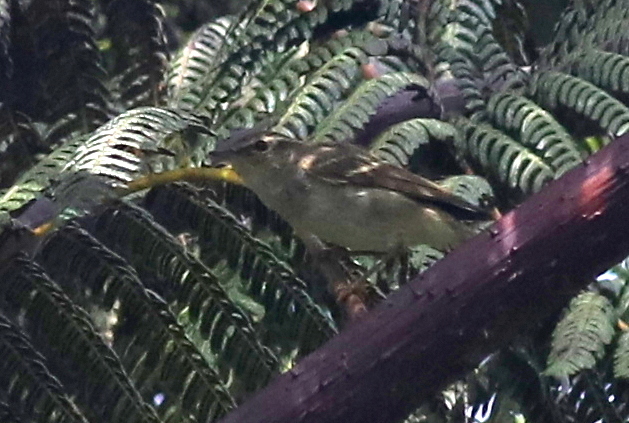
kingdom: Animalia
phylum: Chordata
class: Aves
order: Passeriformes
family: Phylloscopidae
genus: Phylloscopus
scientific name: Phylloscopus inornatus
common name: Yellow-browed warbler
